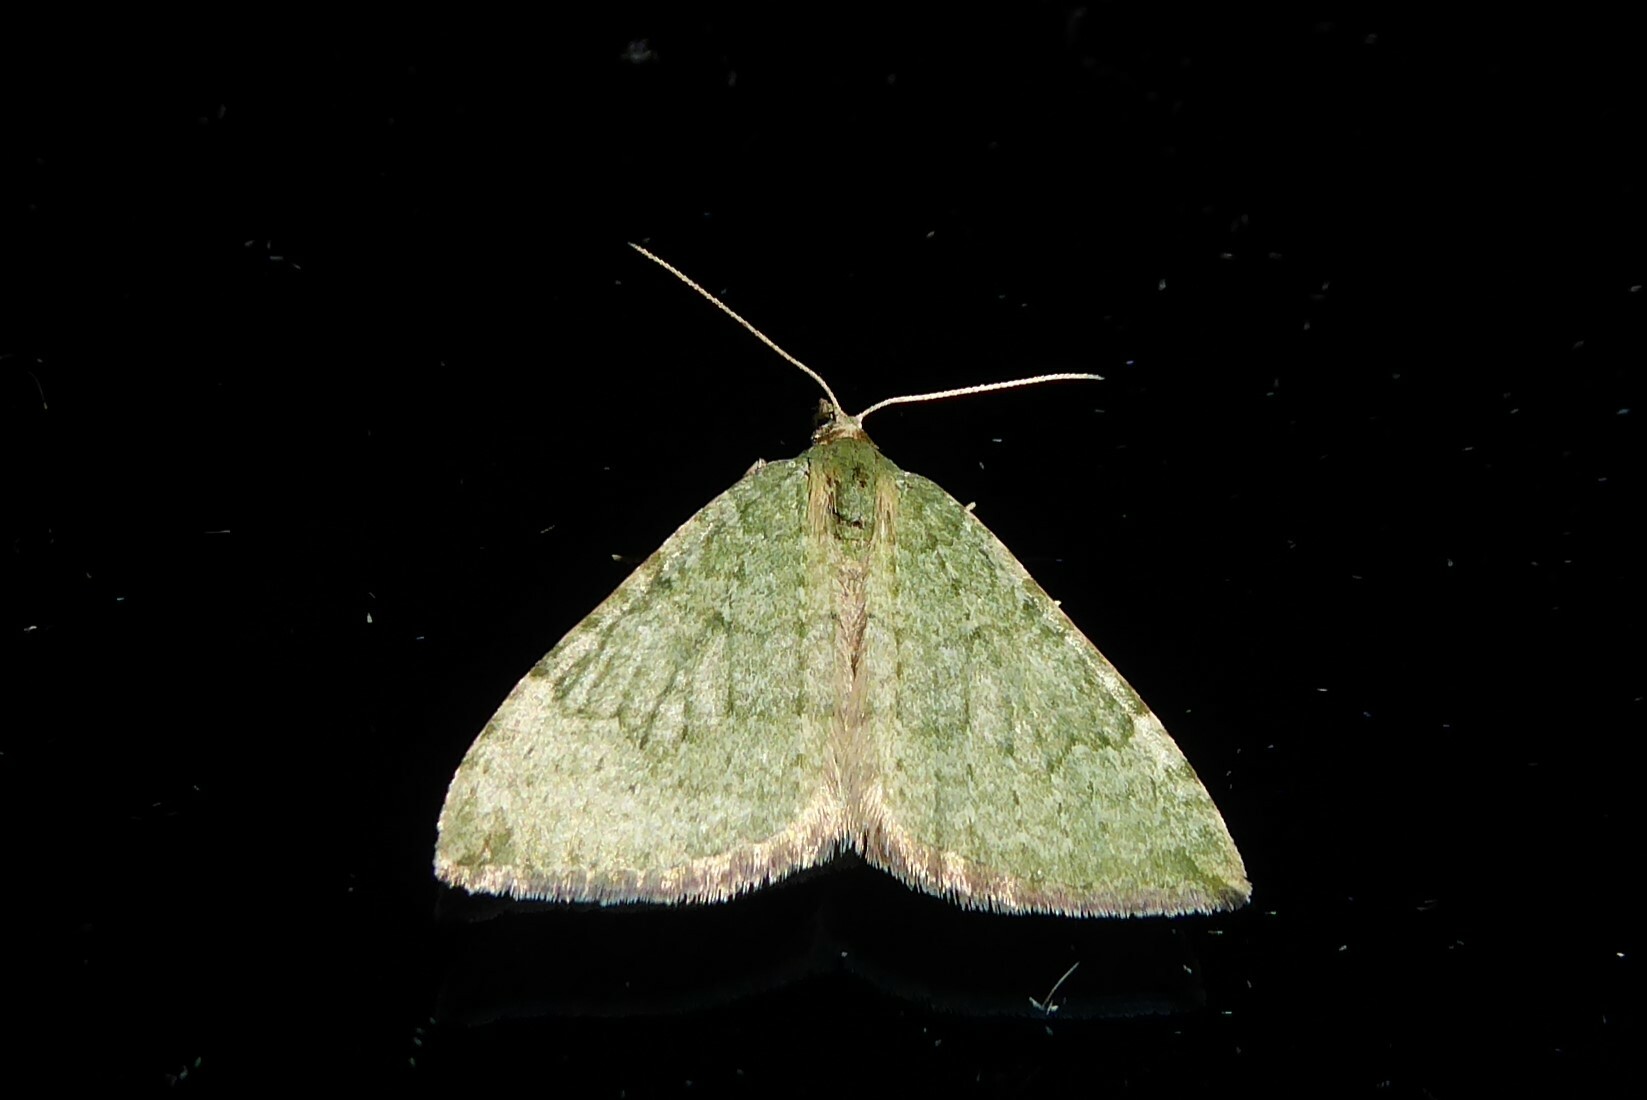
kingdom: Animalia
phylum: Arthropoda
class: Insecta
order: Lepidoptera
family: Geometridae
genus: Epyaxa
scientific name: Epyaxa rosearia
